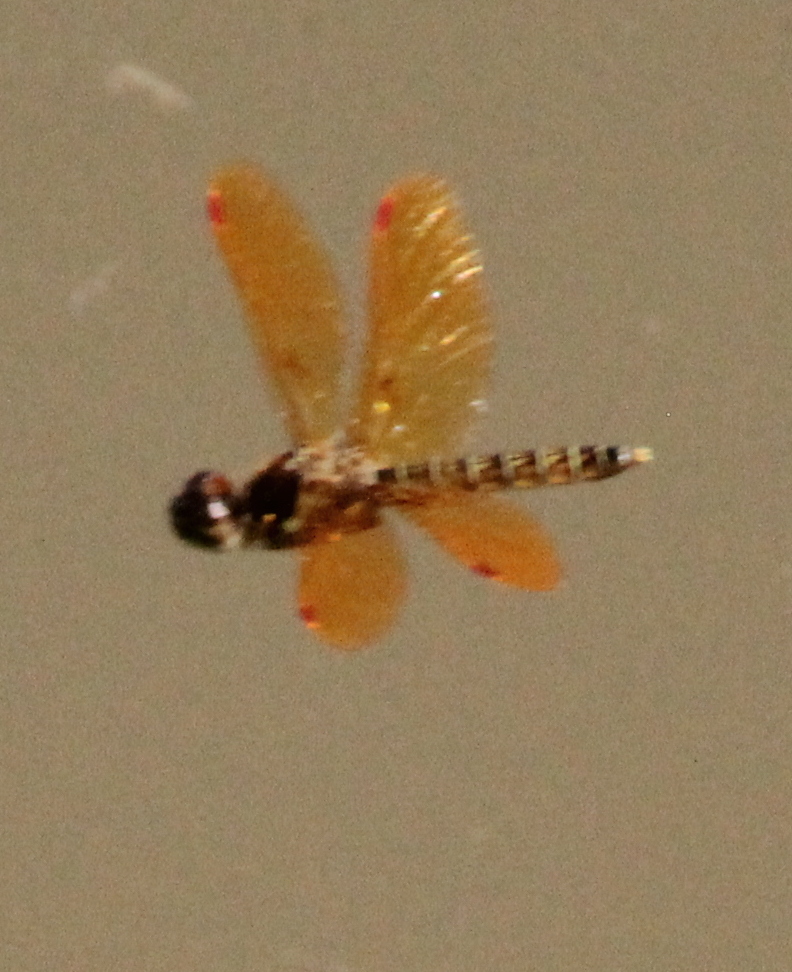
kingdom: Animalia
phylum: Arthropoda
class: Insecta
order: Odonata
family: Libellulidae
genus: Perithemis
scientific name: Perithemis tenera
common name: Eastern amberwing
